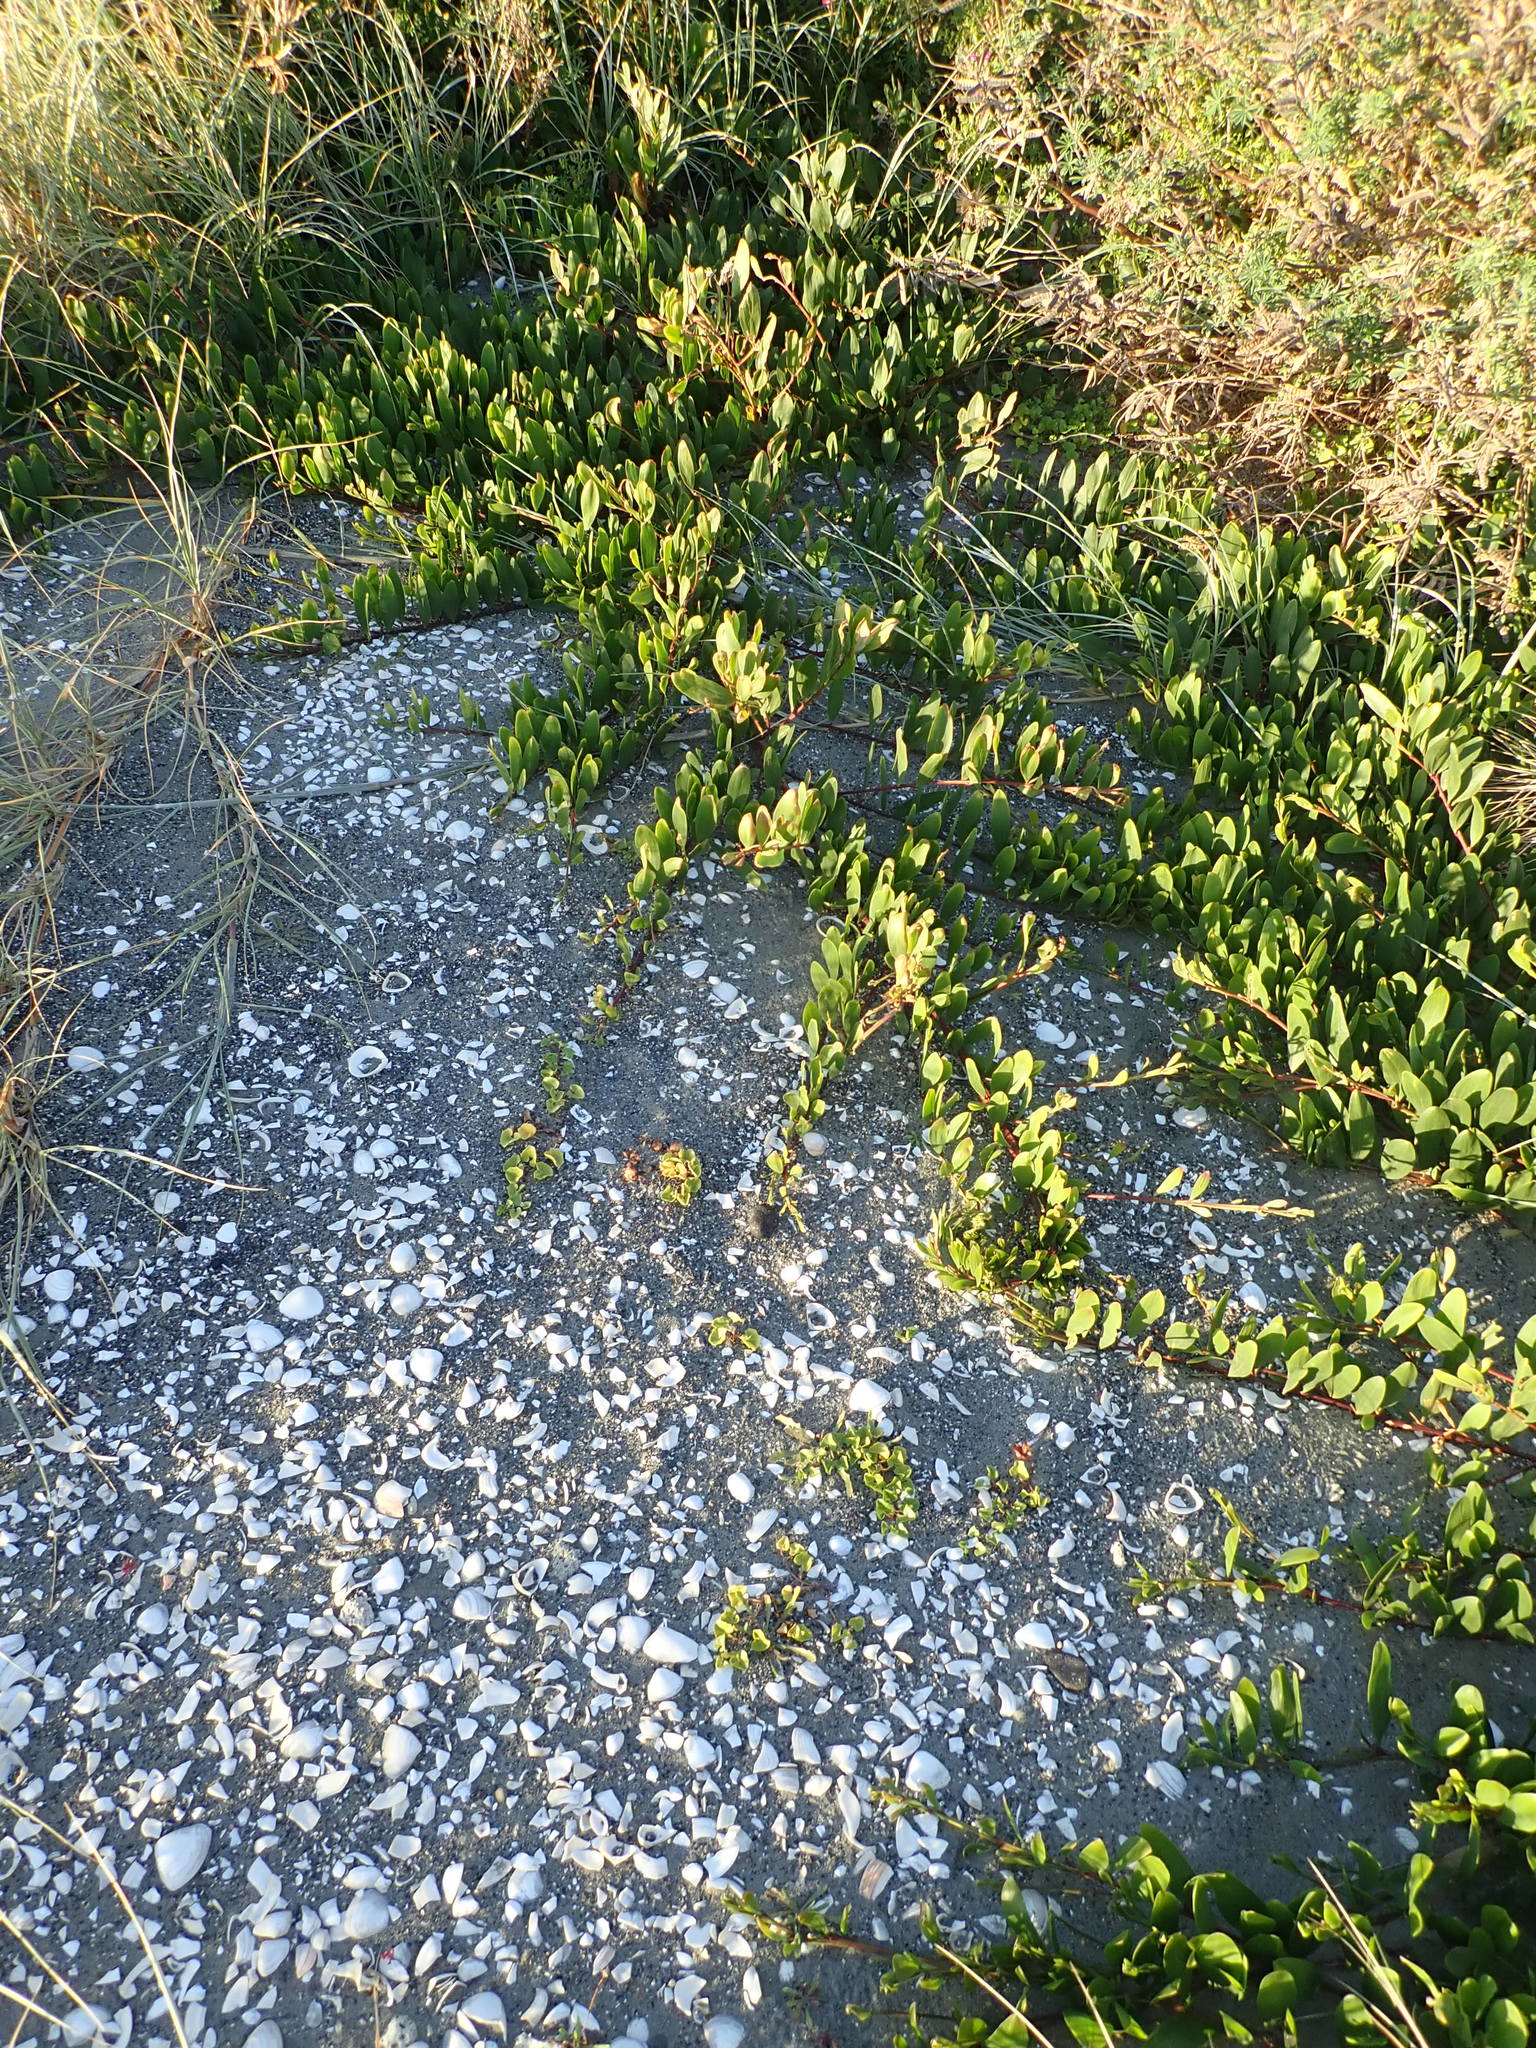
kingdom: Plantae
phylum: Tracheophyta
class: Magnoliopsida
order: Fabales
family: Fabaceae
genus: Acacia
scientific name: Acacia longifolia
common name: Sydney golden wattle
